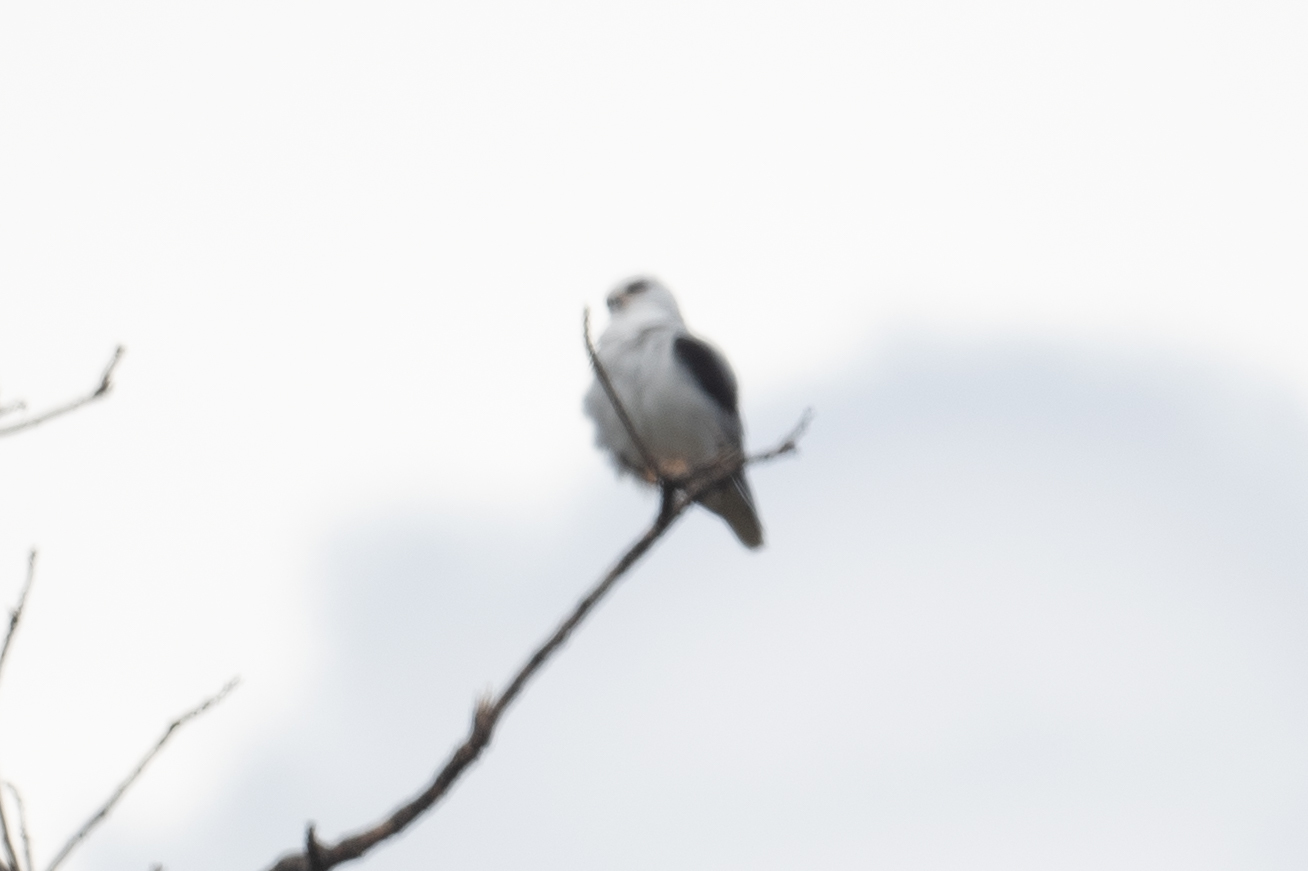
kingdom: Animalia
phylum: Chordata
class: Aves
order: Accipitriformes
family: Accipitridae
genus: Elanus
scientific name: Elanus leucurus
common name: White-tailed kite
